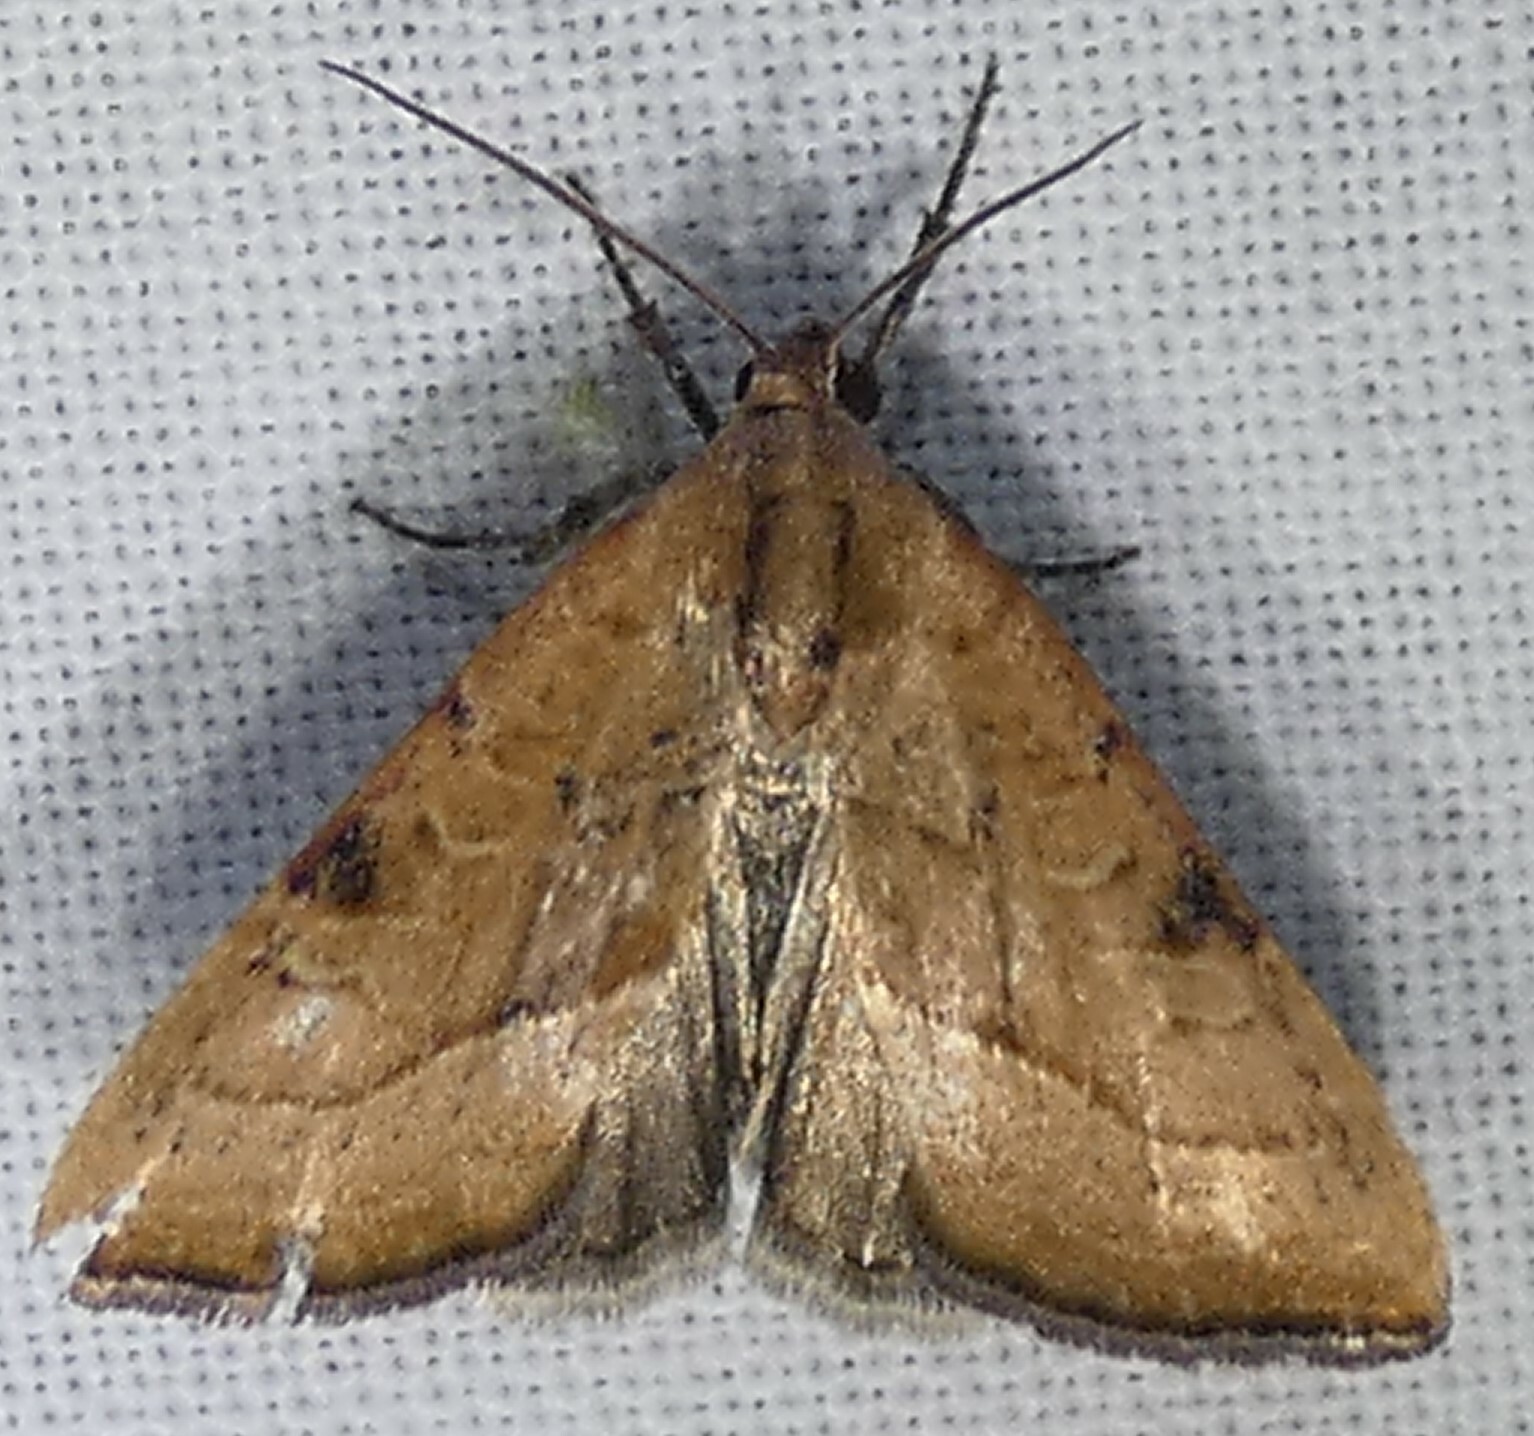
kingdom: Animalia
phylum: Arthropoda
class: Insecta
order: Lepidoptera
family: Noctuidae
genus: Galgula
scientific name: Galgula partita
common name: Wedgeling
